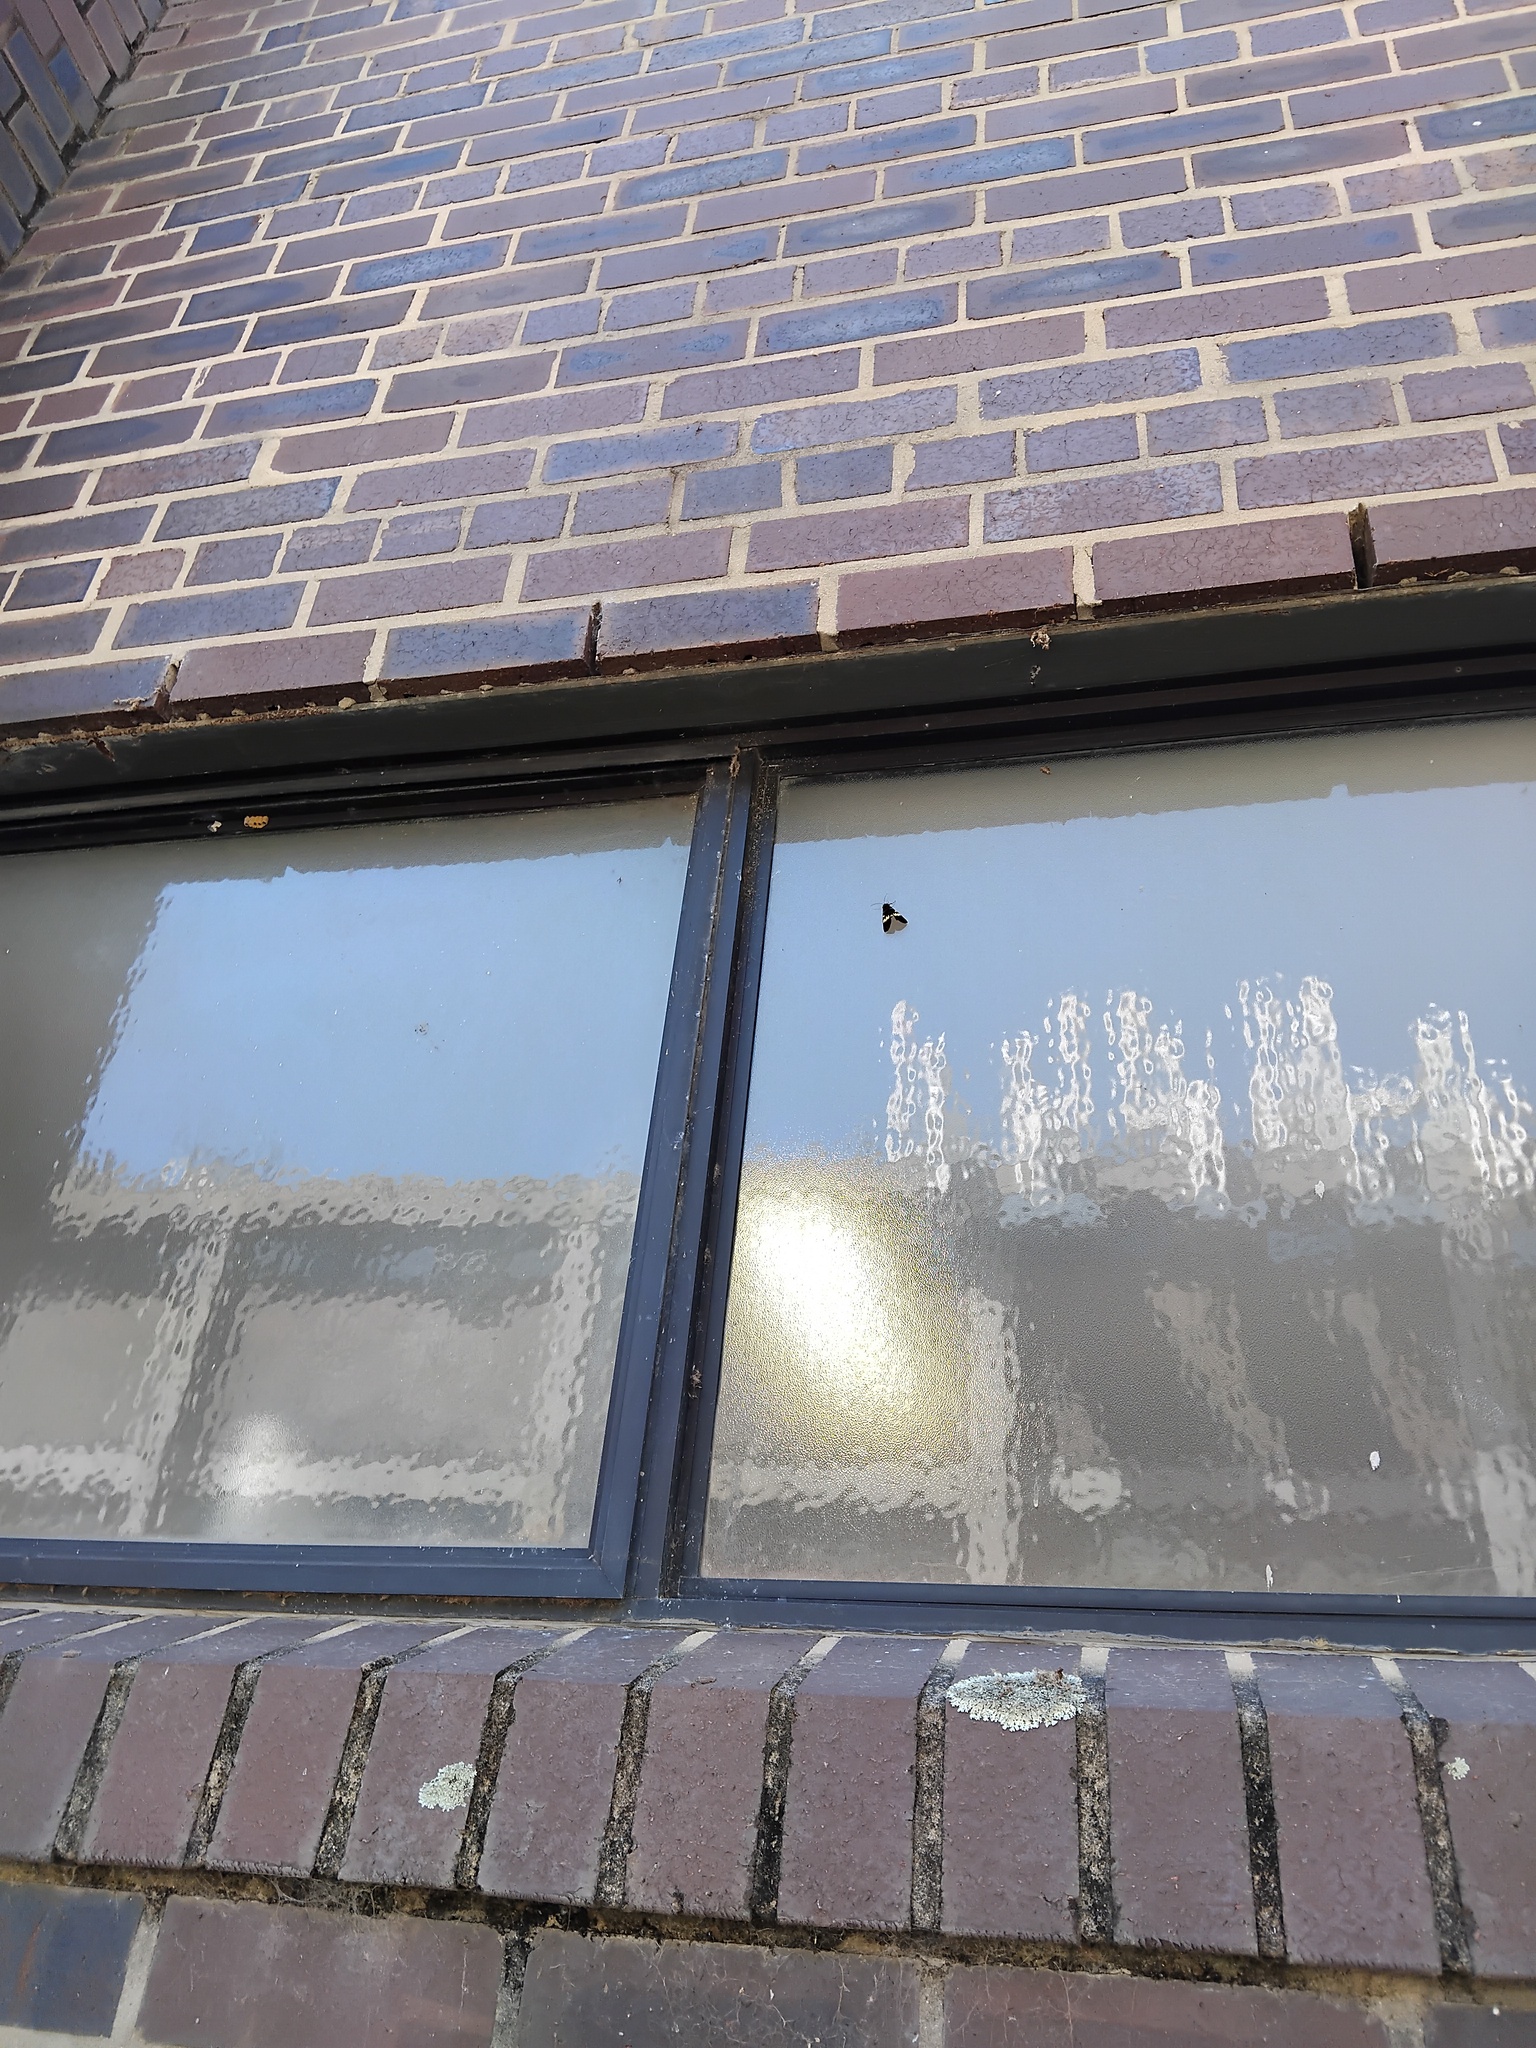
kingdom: Animalia
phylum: Arthropoda
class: Insecta
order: Lepidoptera
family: Noctuidae
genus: Phalaenoides
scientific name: Phalaenoides glycinae
